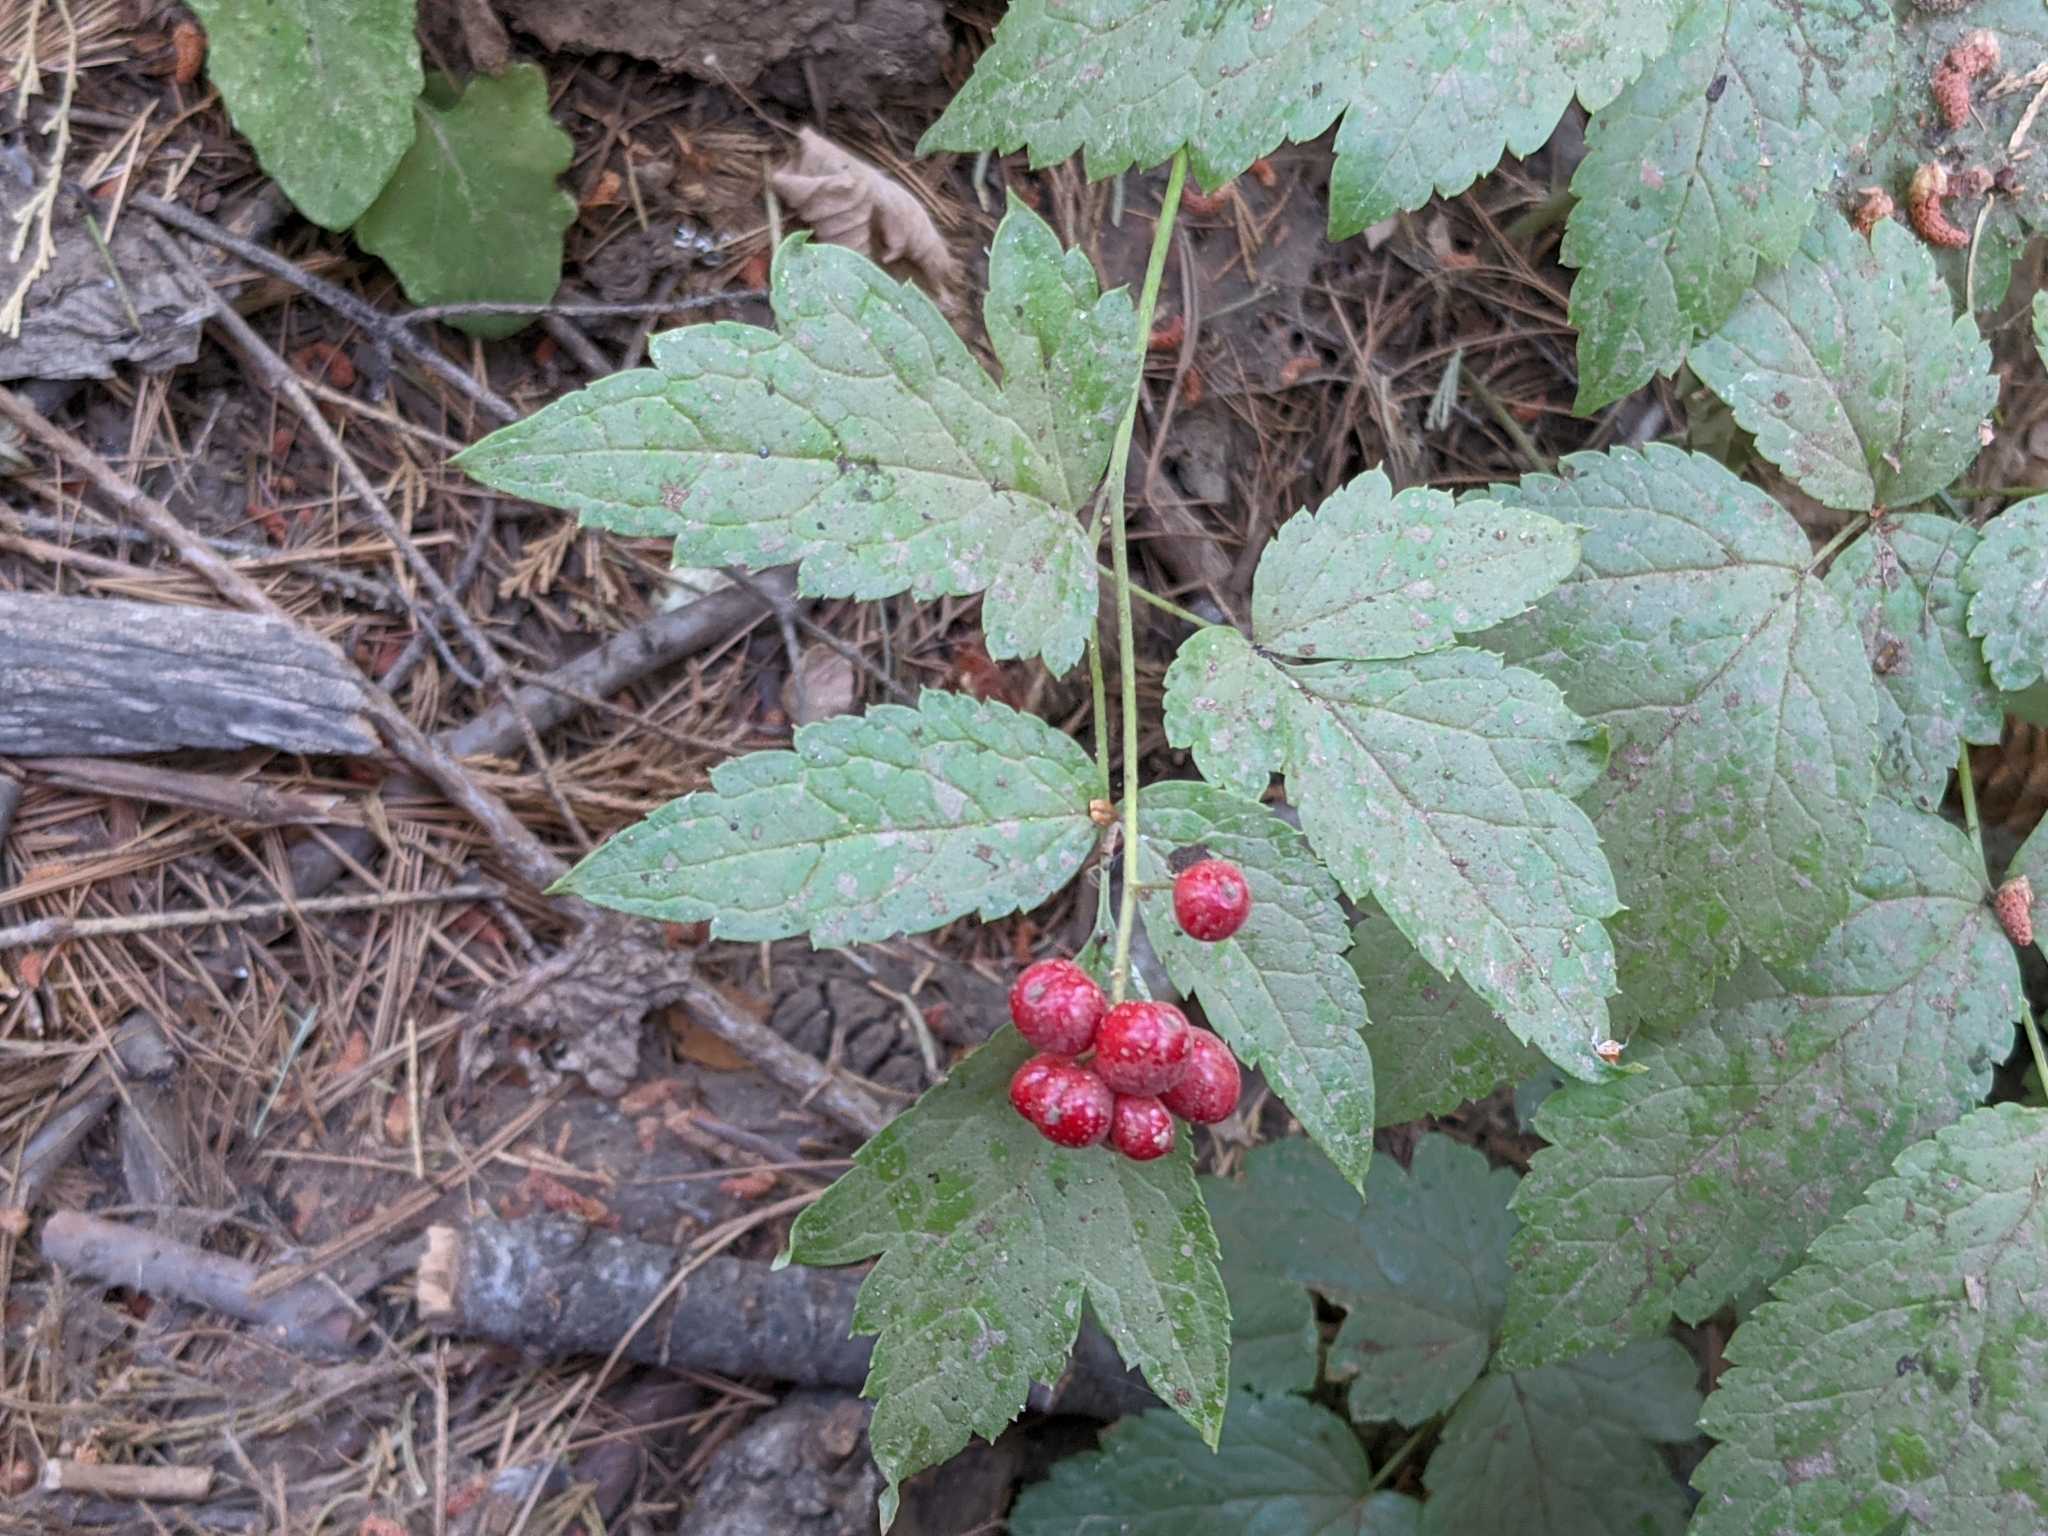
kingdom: Plantae
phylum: Tracheophyta
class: Magnoliopsida
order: Ranunculales
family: Ranunculaceae
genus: Actaea
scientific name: Actaea rubra
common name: Red baneberry
